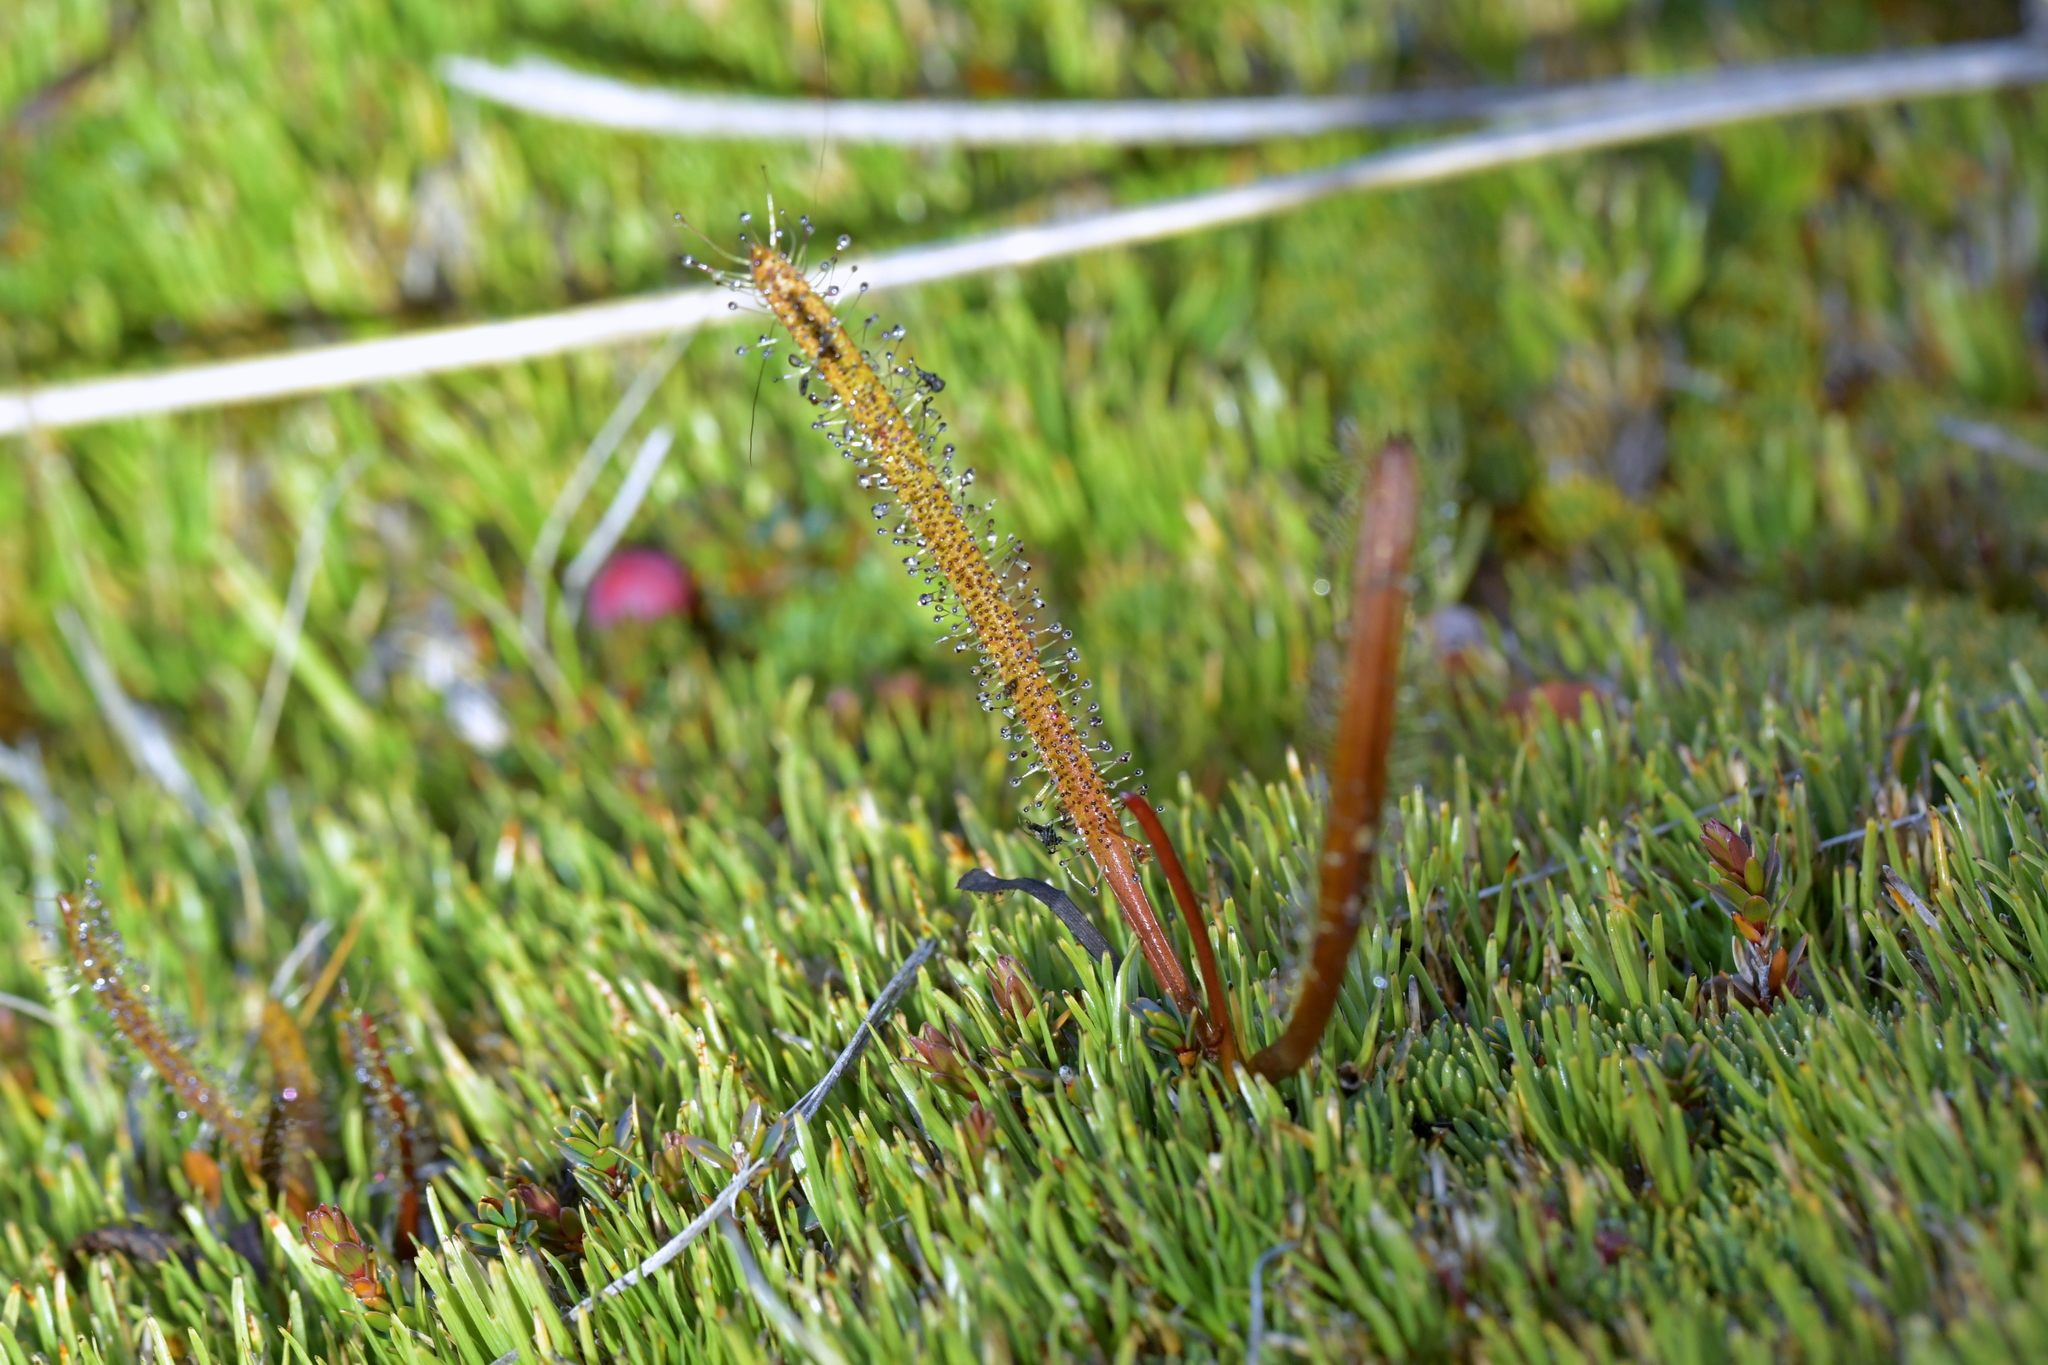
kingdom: Plantae
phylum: Tracheophyta
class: Magnoliopsida
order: Caryophyllales
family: Droseraceae
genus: Drosera
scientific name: Drosera arcturi
